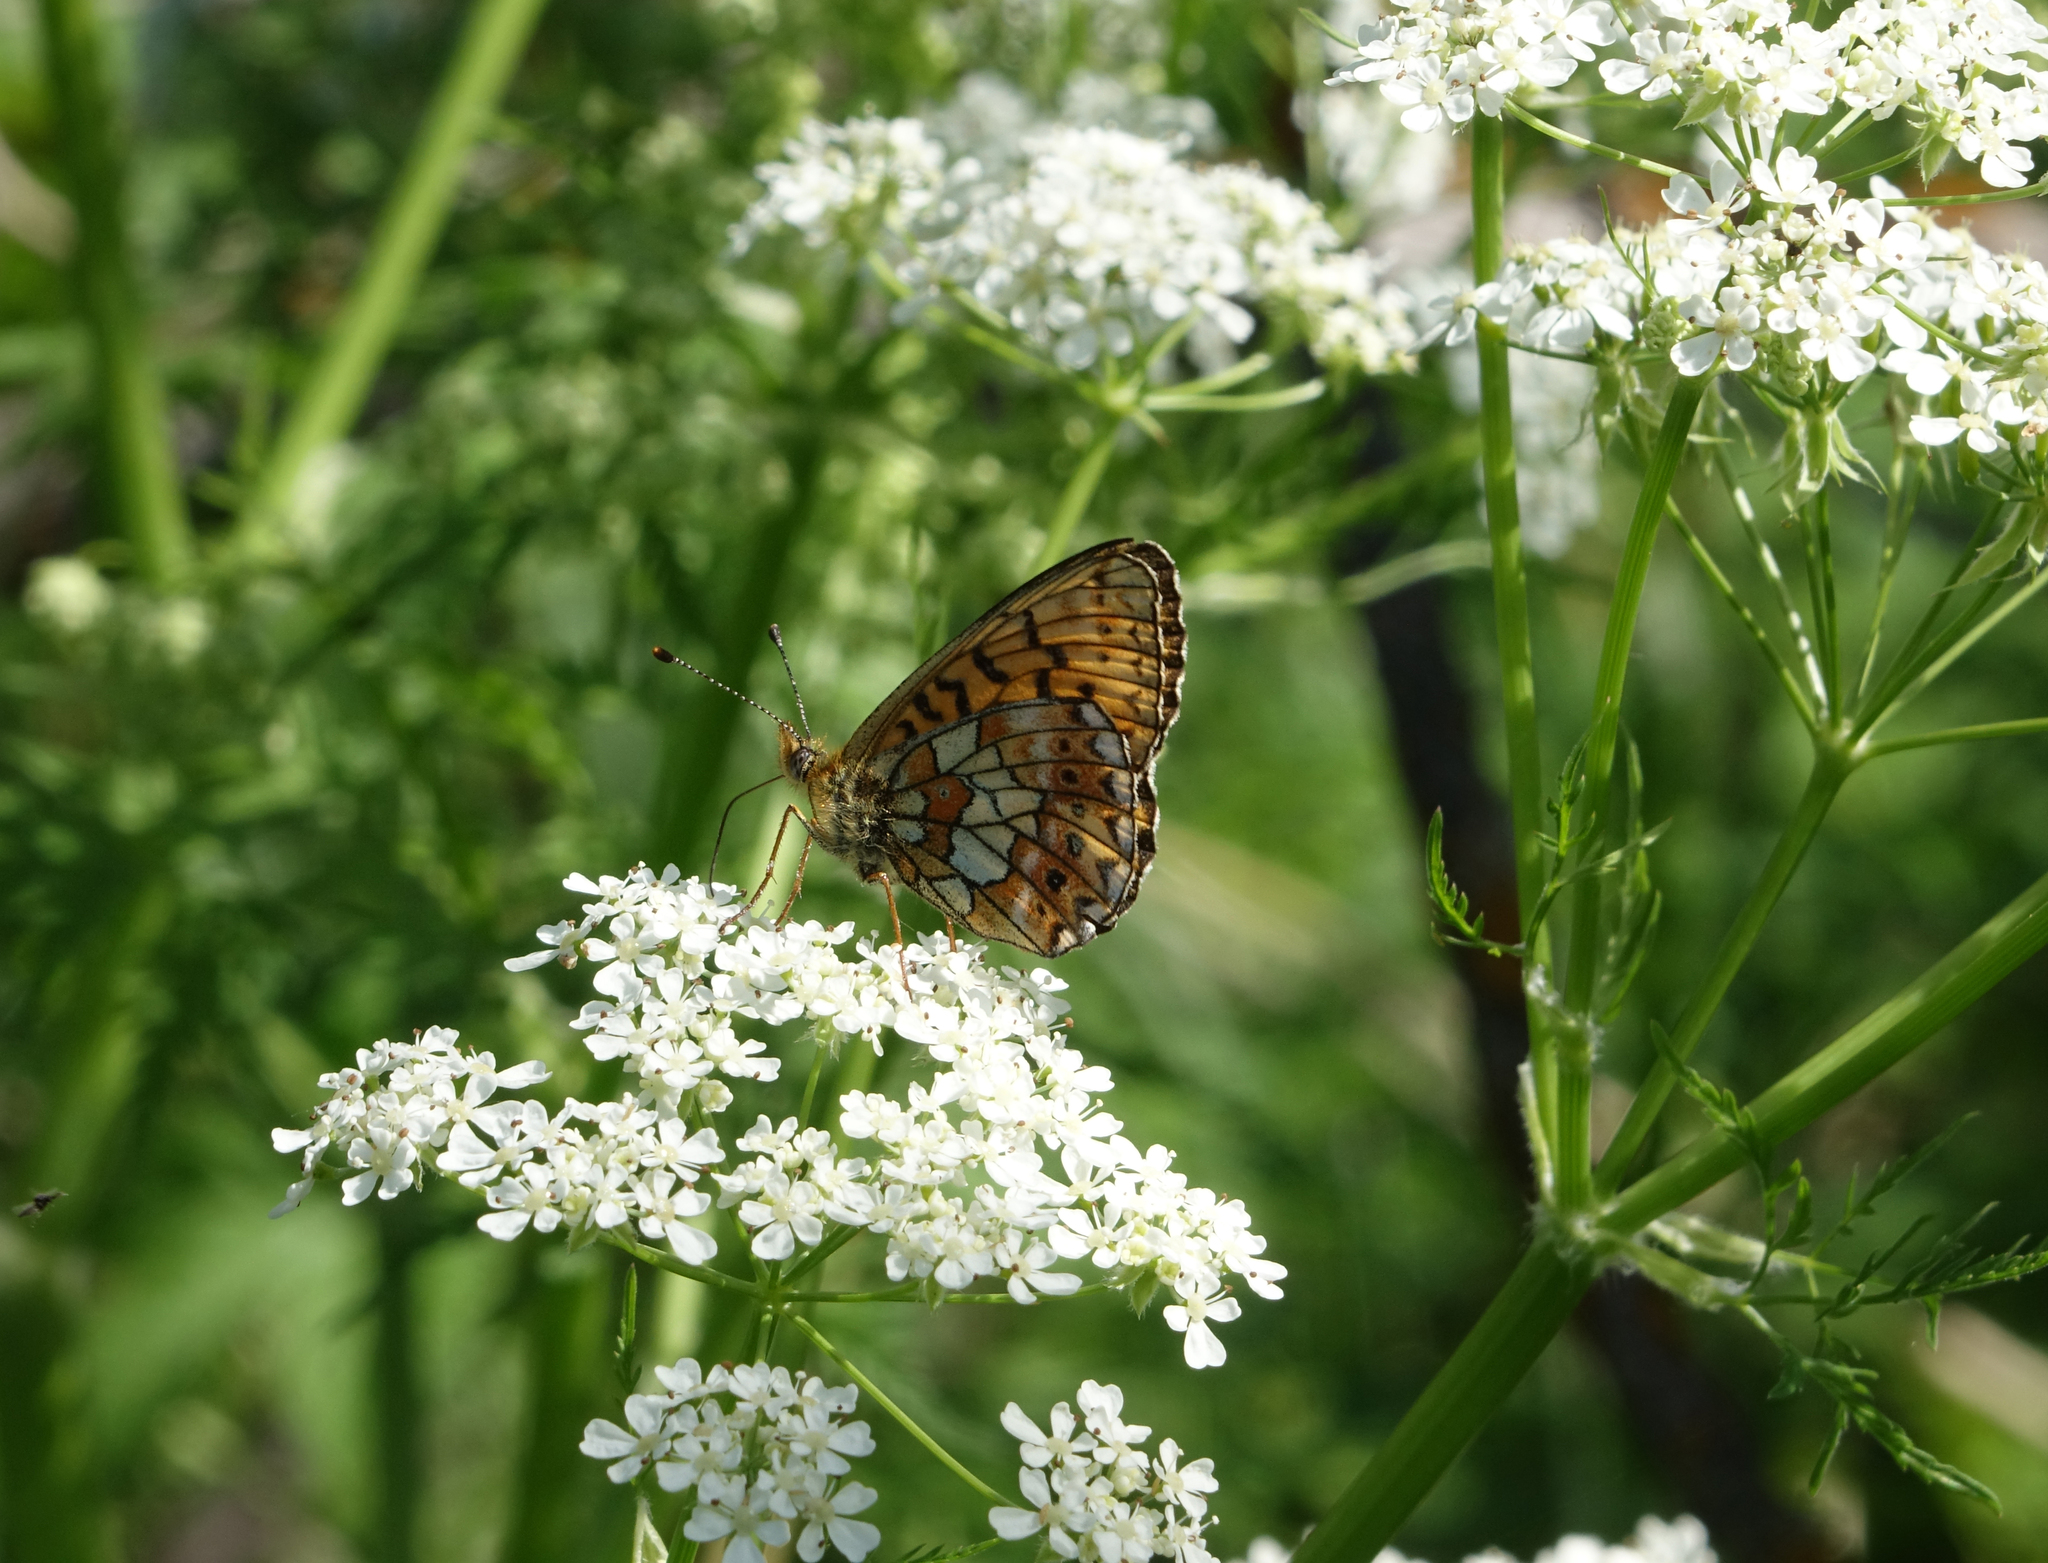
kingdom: Animalia
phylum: Arthropoda
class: Insecta
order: Lepidoptera
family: Nymphalidae
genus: Clossiana
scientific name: Clossiana oscarus
